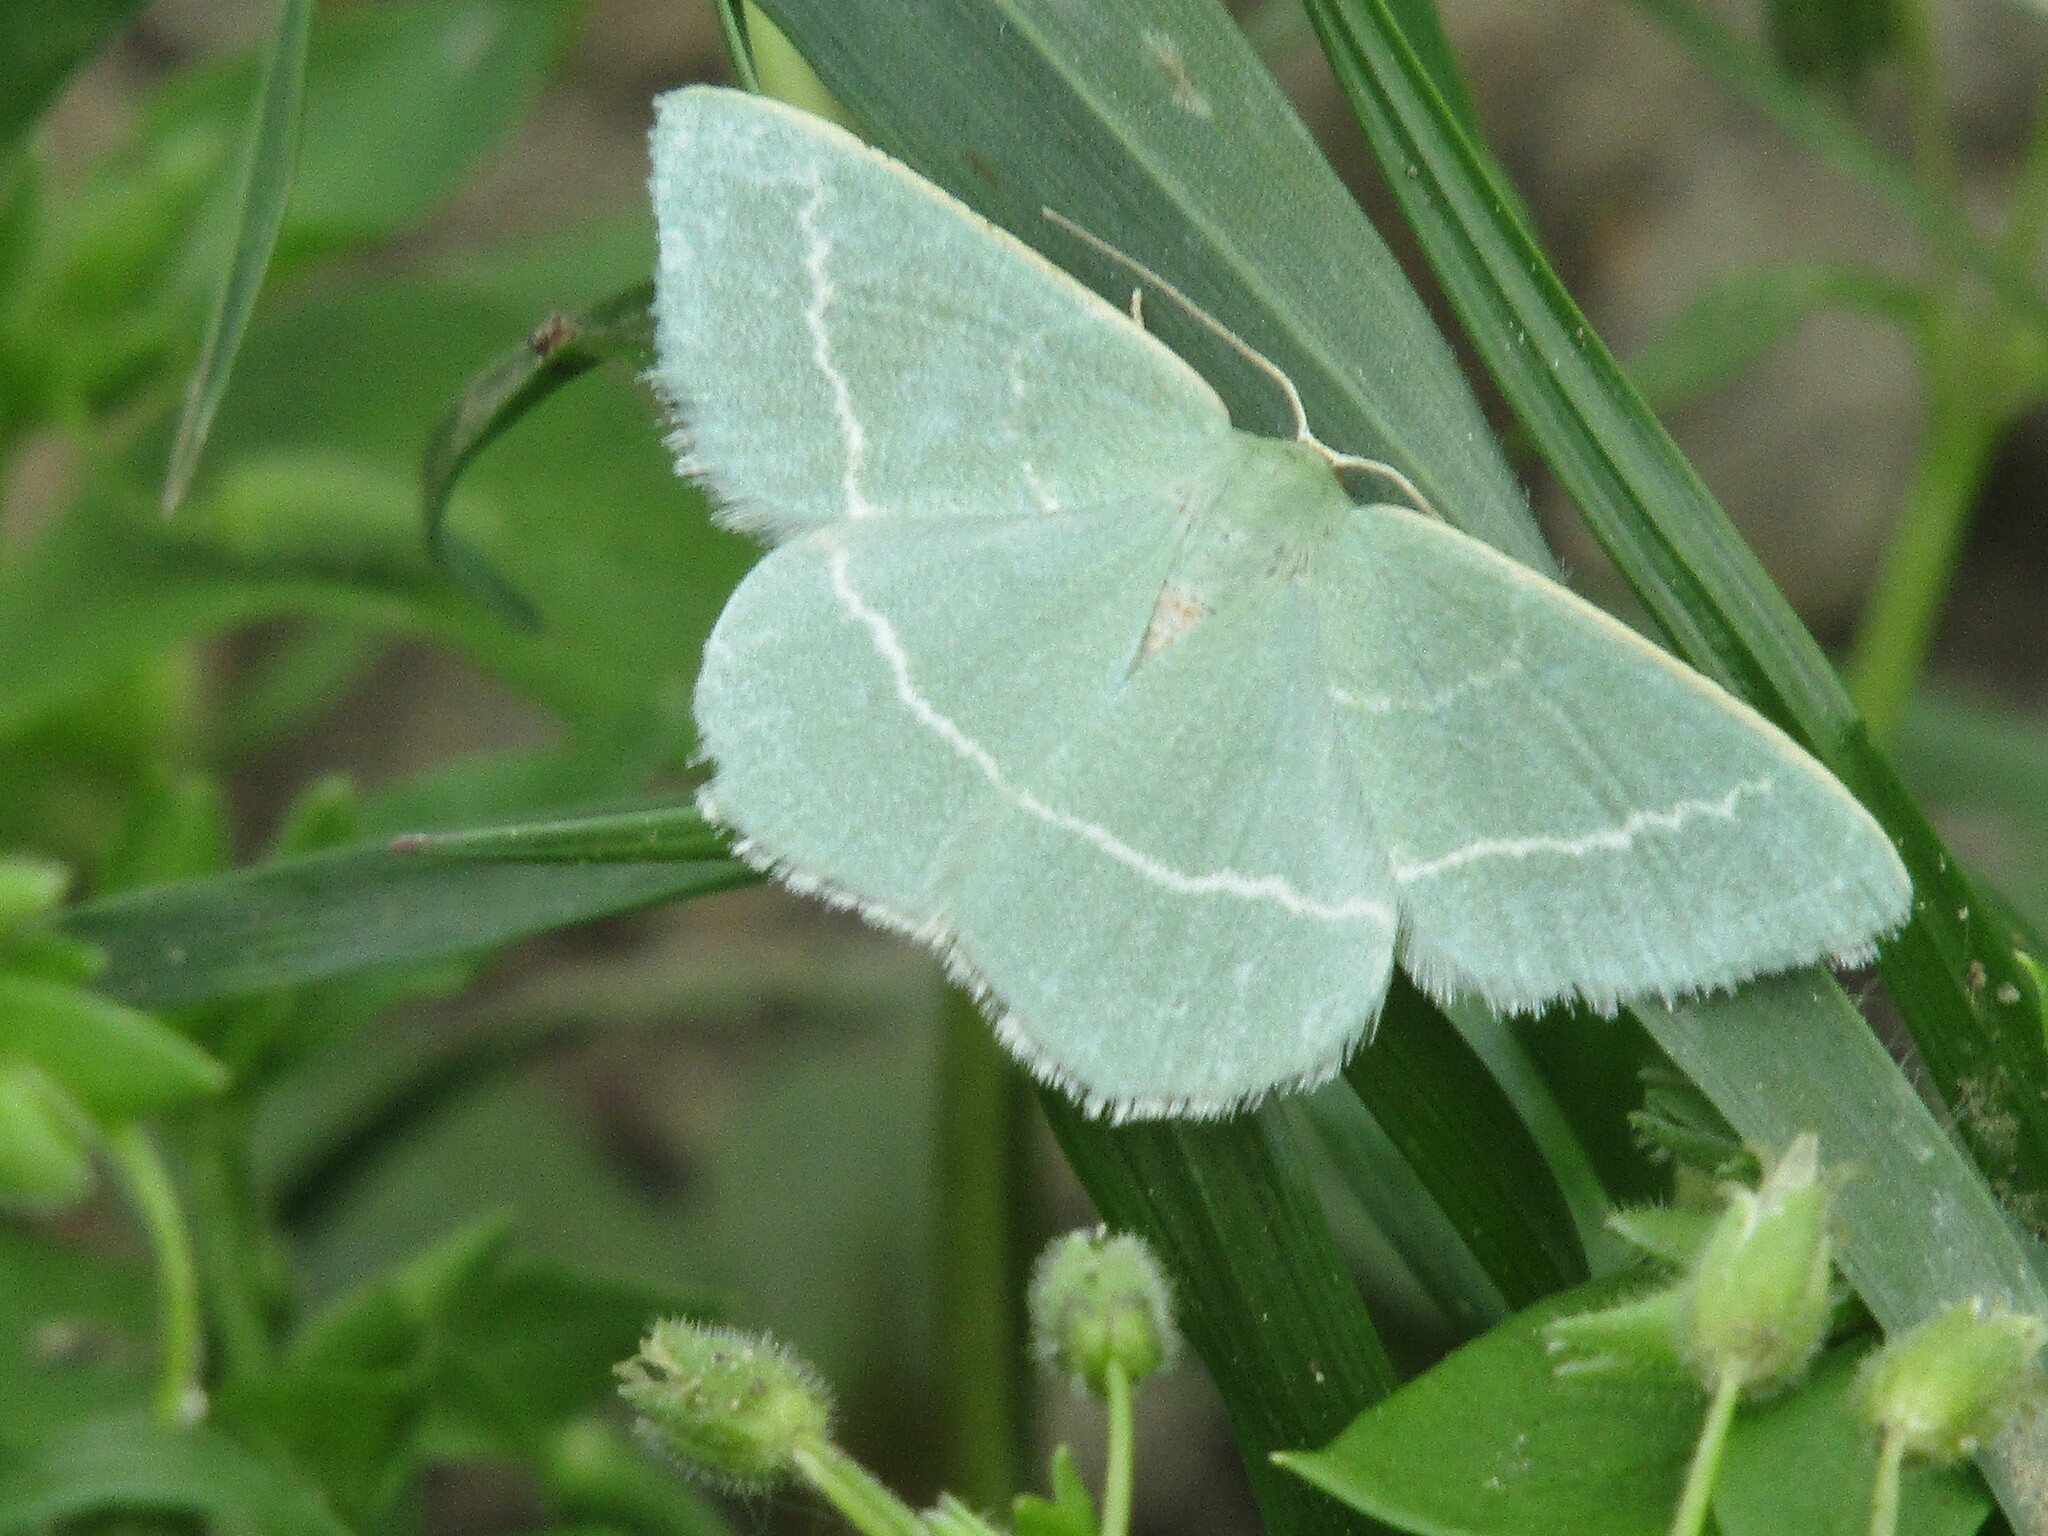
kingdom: Animalia
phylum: Arthropoda
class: Insecta
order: Lepidoptera
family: Geometridae
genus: Chlorissa
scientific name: Chlorissa
